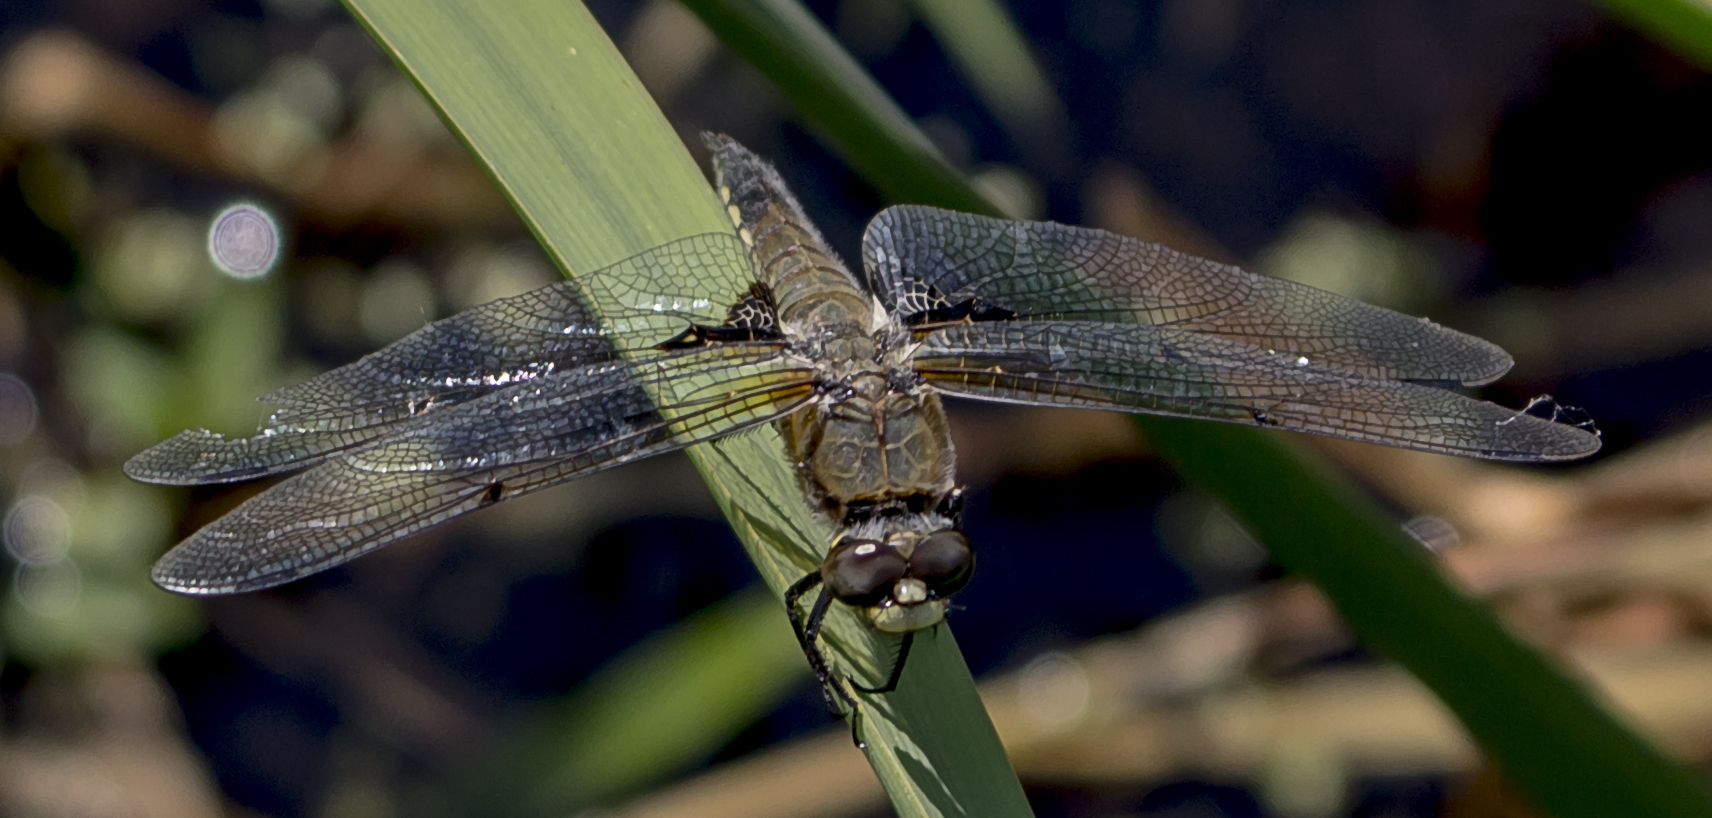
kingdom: Animalia
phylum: Arthropoda
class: Insecta
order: Odonata
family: Libellulidae
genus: Libellula
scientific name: Libellula quadrimaculata
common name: Four-spotted chaser
